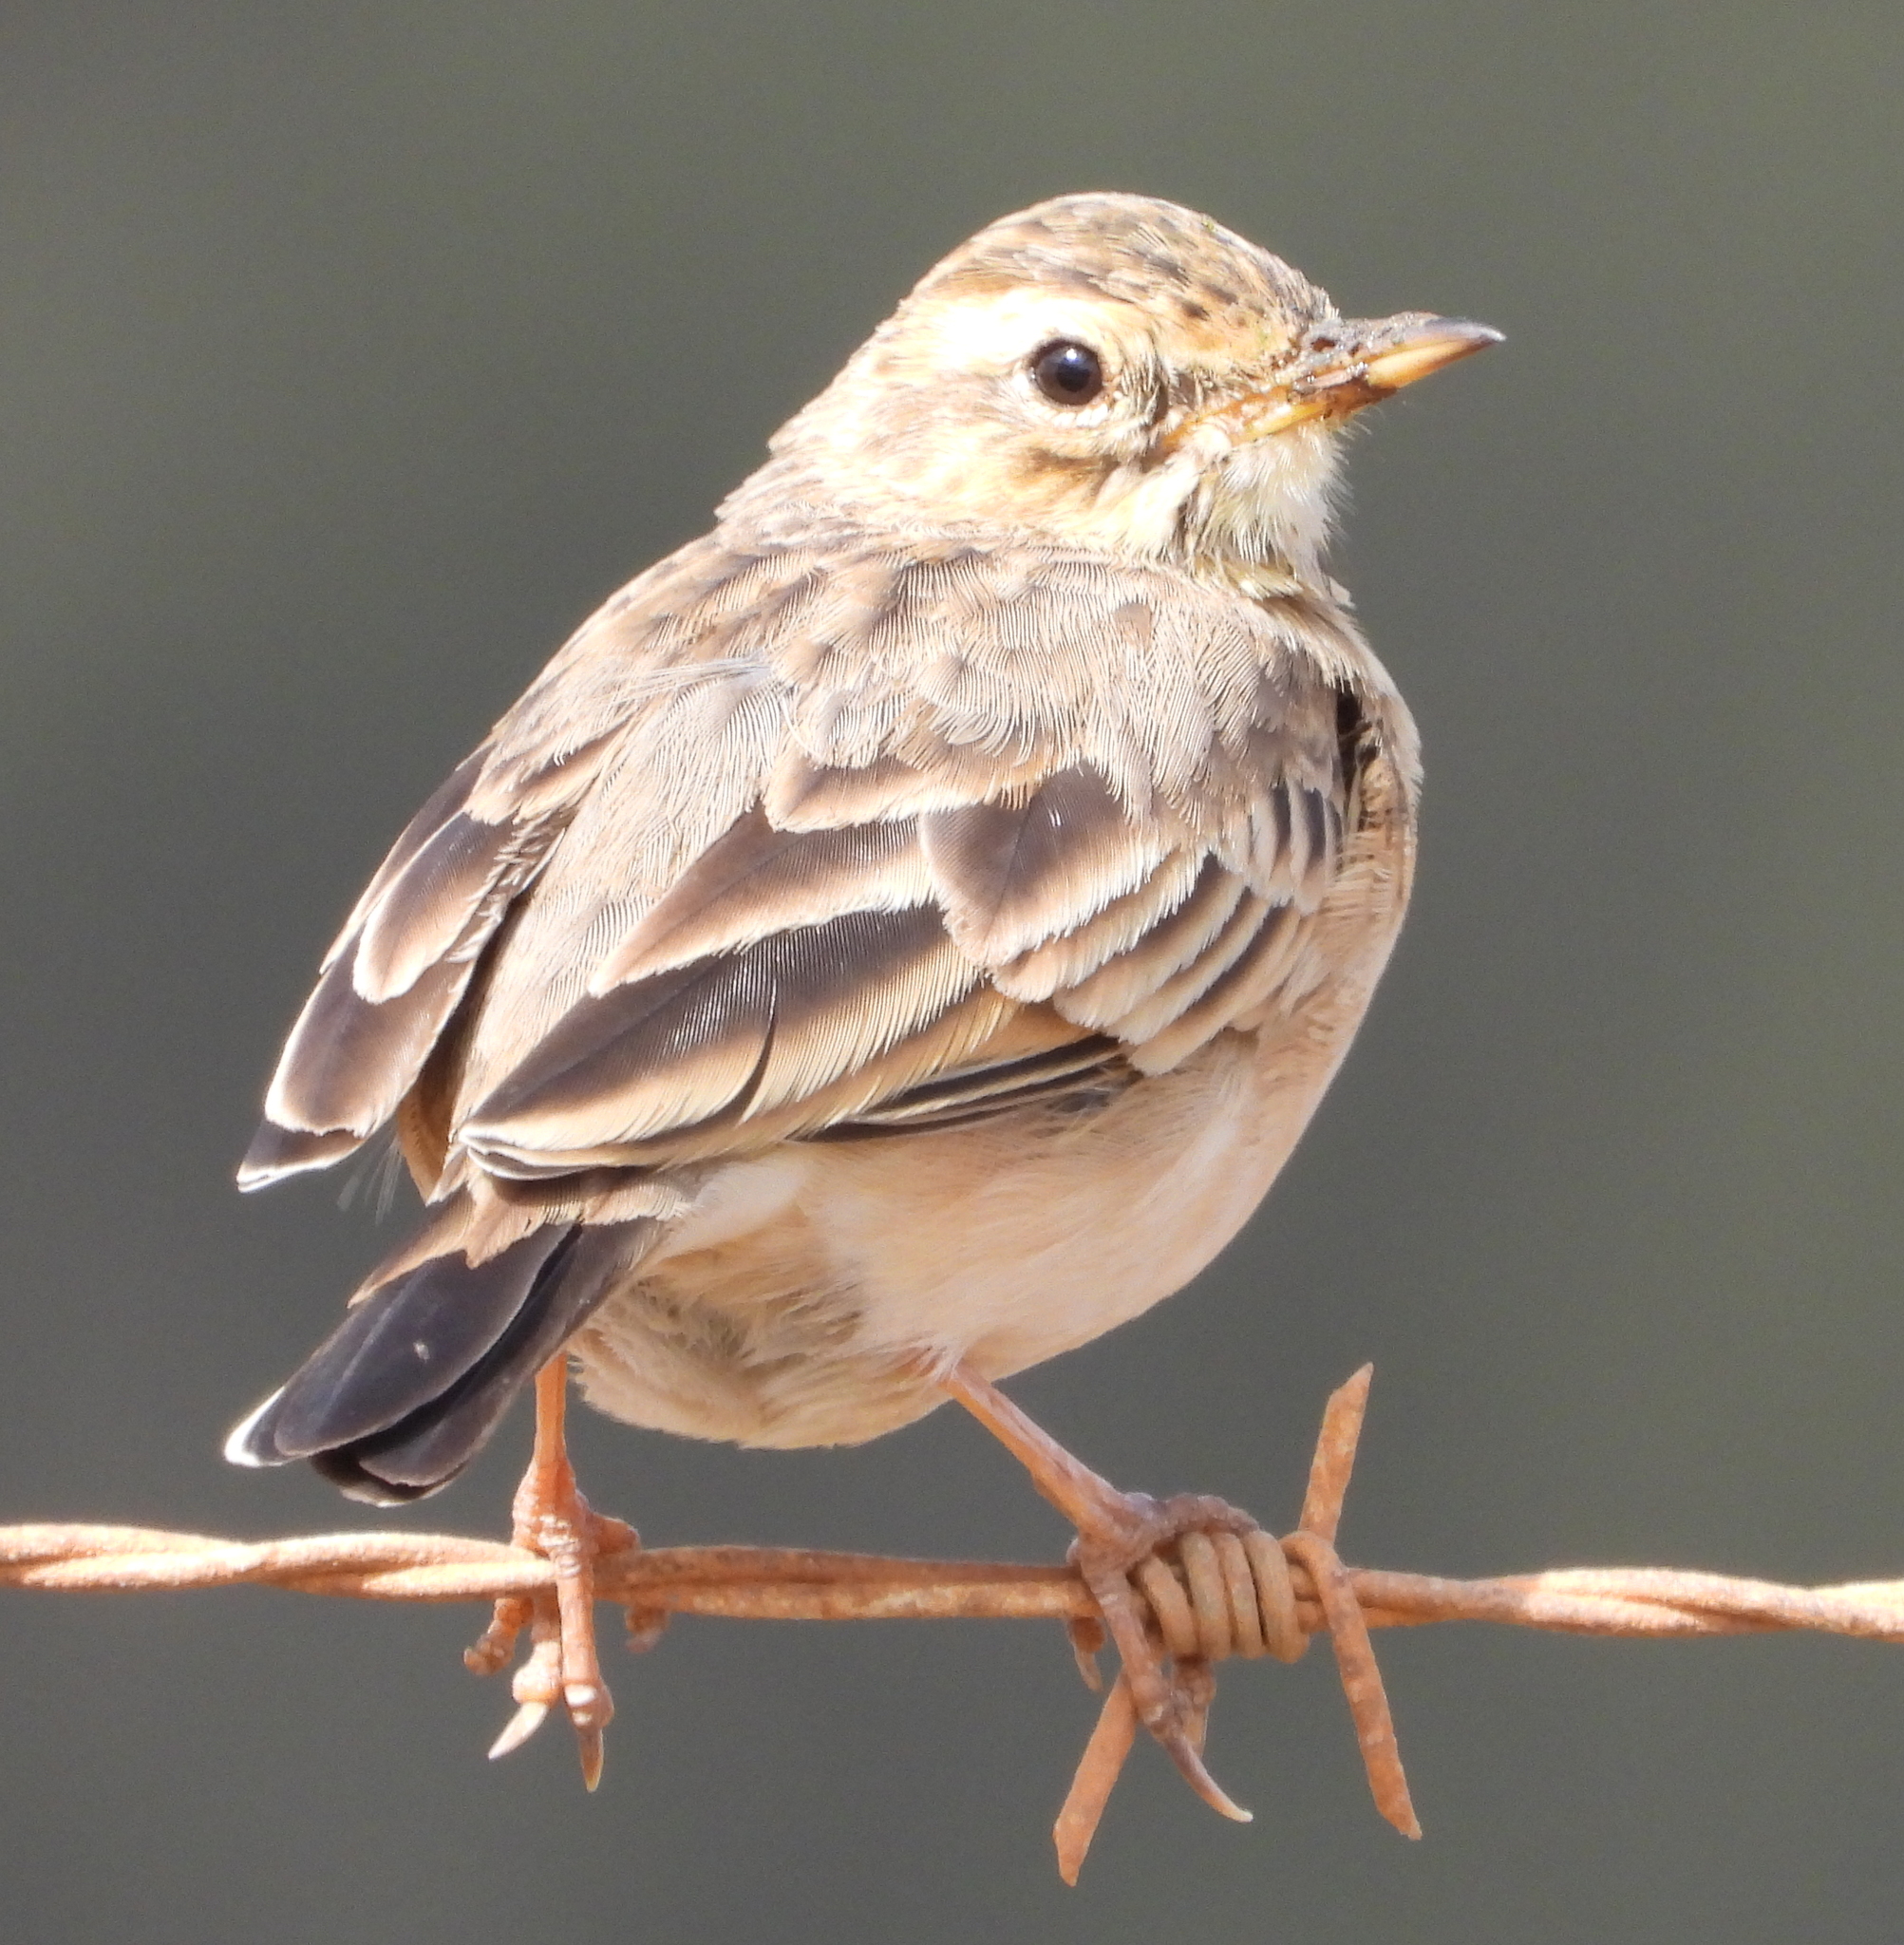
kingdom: Animalia
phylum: Chordata
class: Aves
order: Passeriformes
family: Motacillidae
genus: Anthus
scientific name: Anthus cinnamomeus
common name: African pipit
